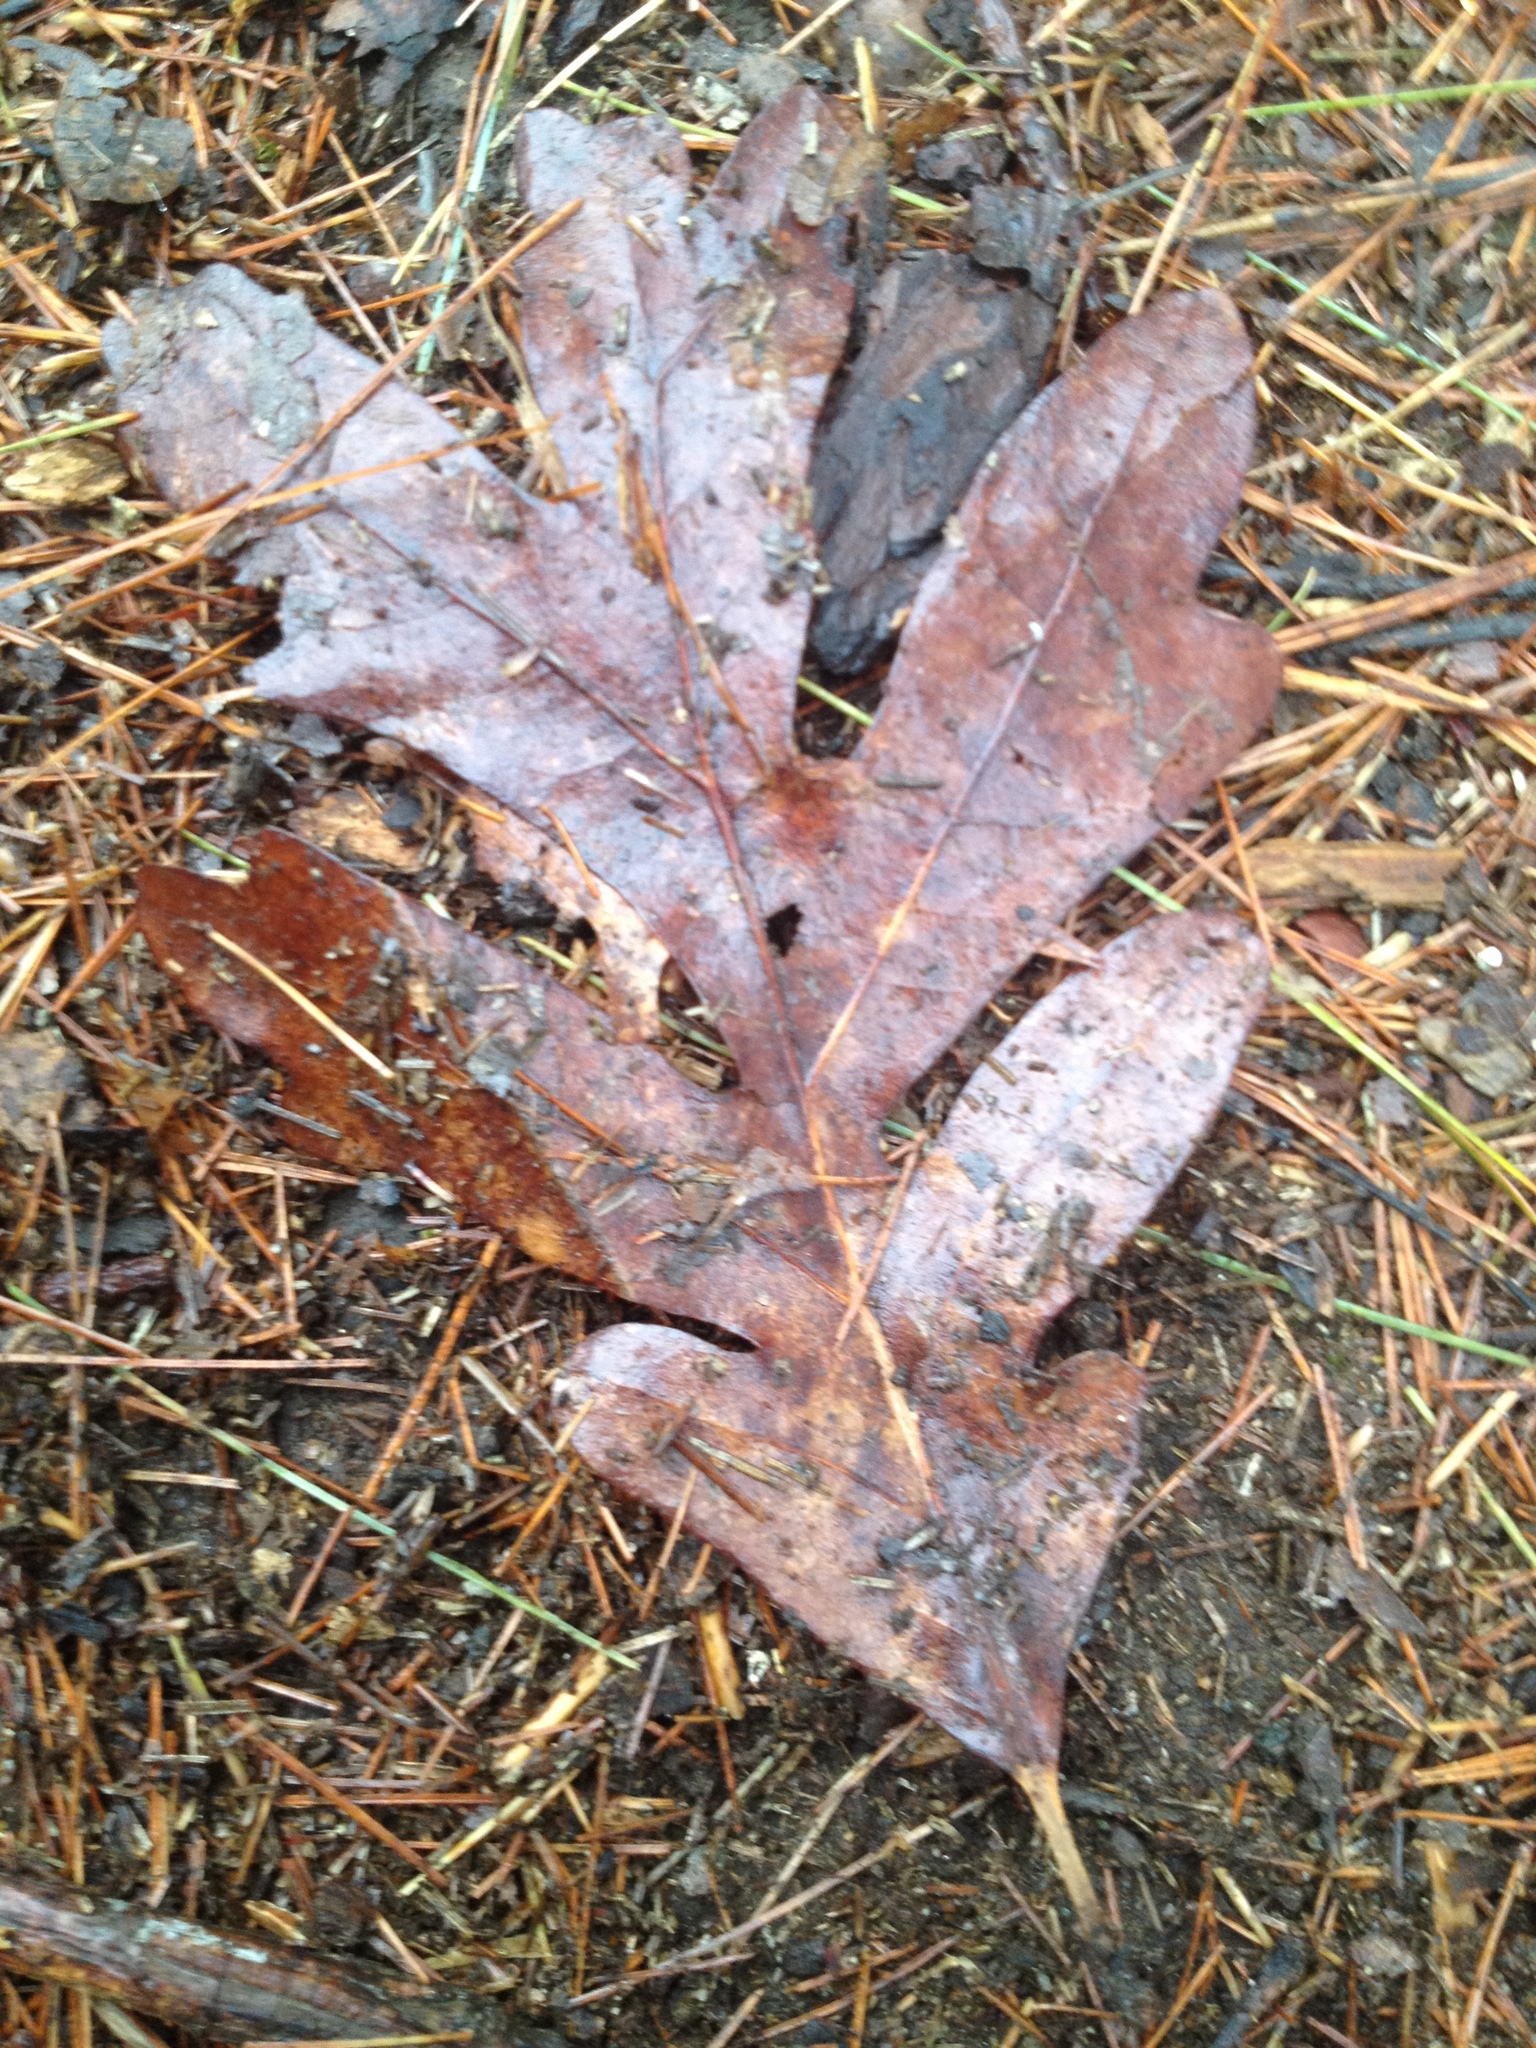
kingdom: Plantae
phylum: Tracheophyta
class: Magnoliopsida
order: Fagales
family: Fagaceae
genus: Quercus
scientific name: Quercus alba
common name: White oak
